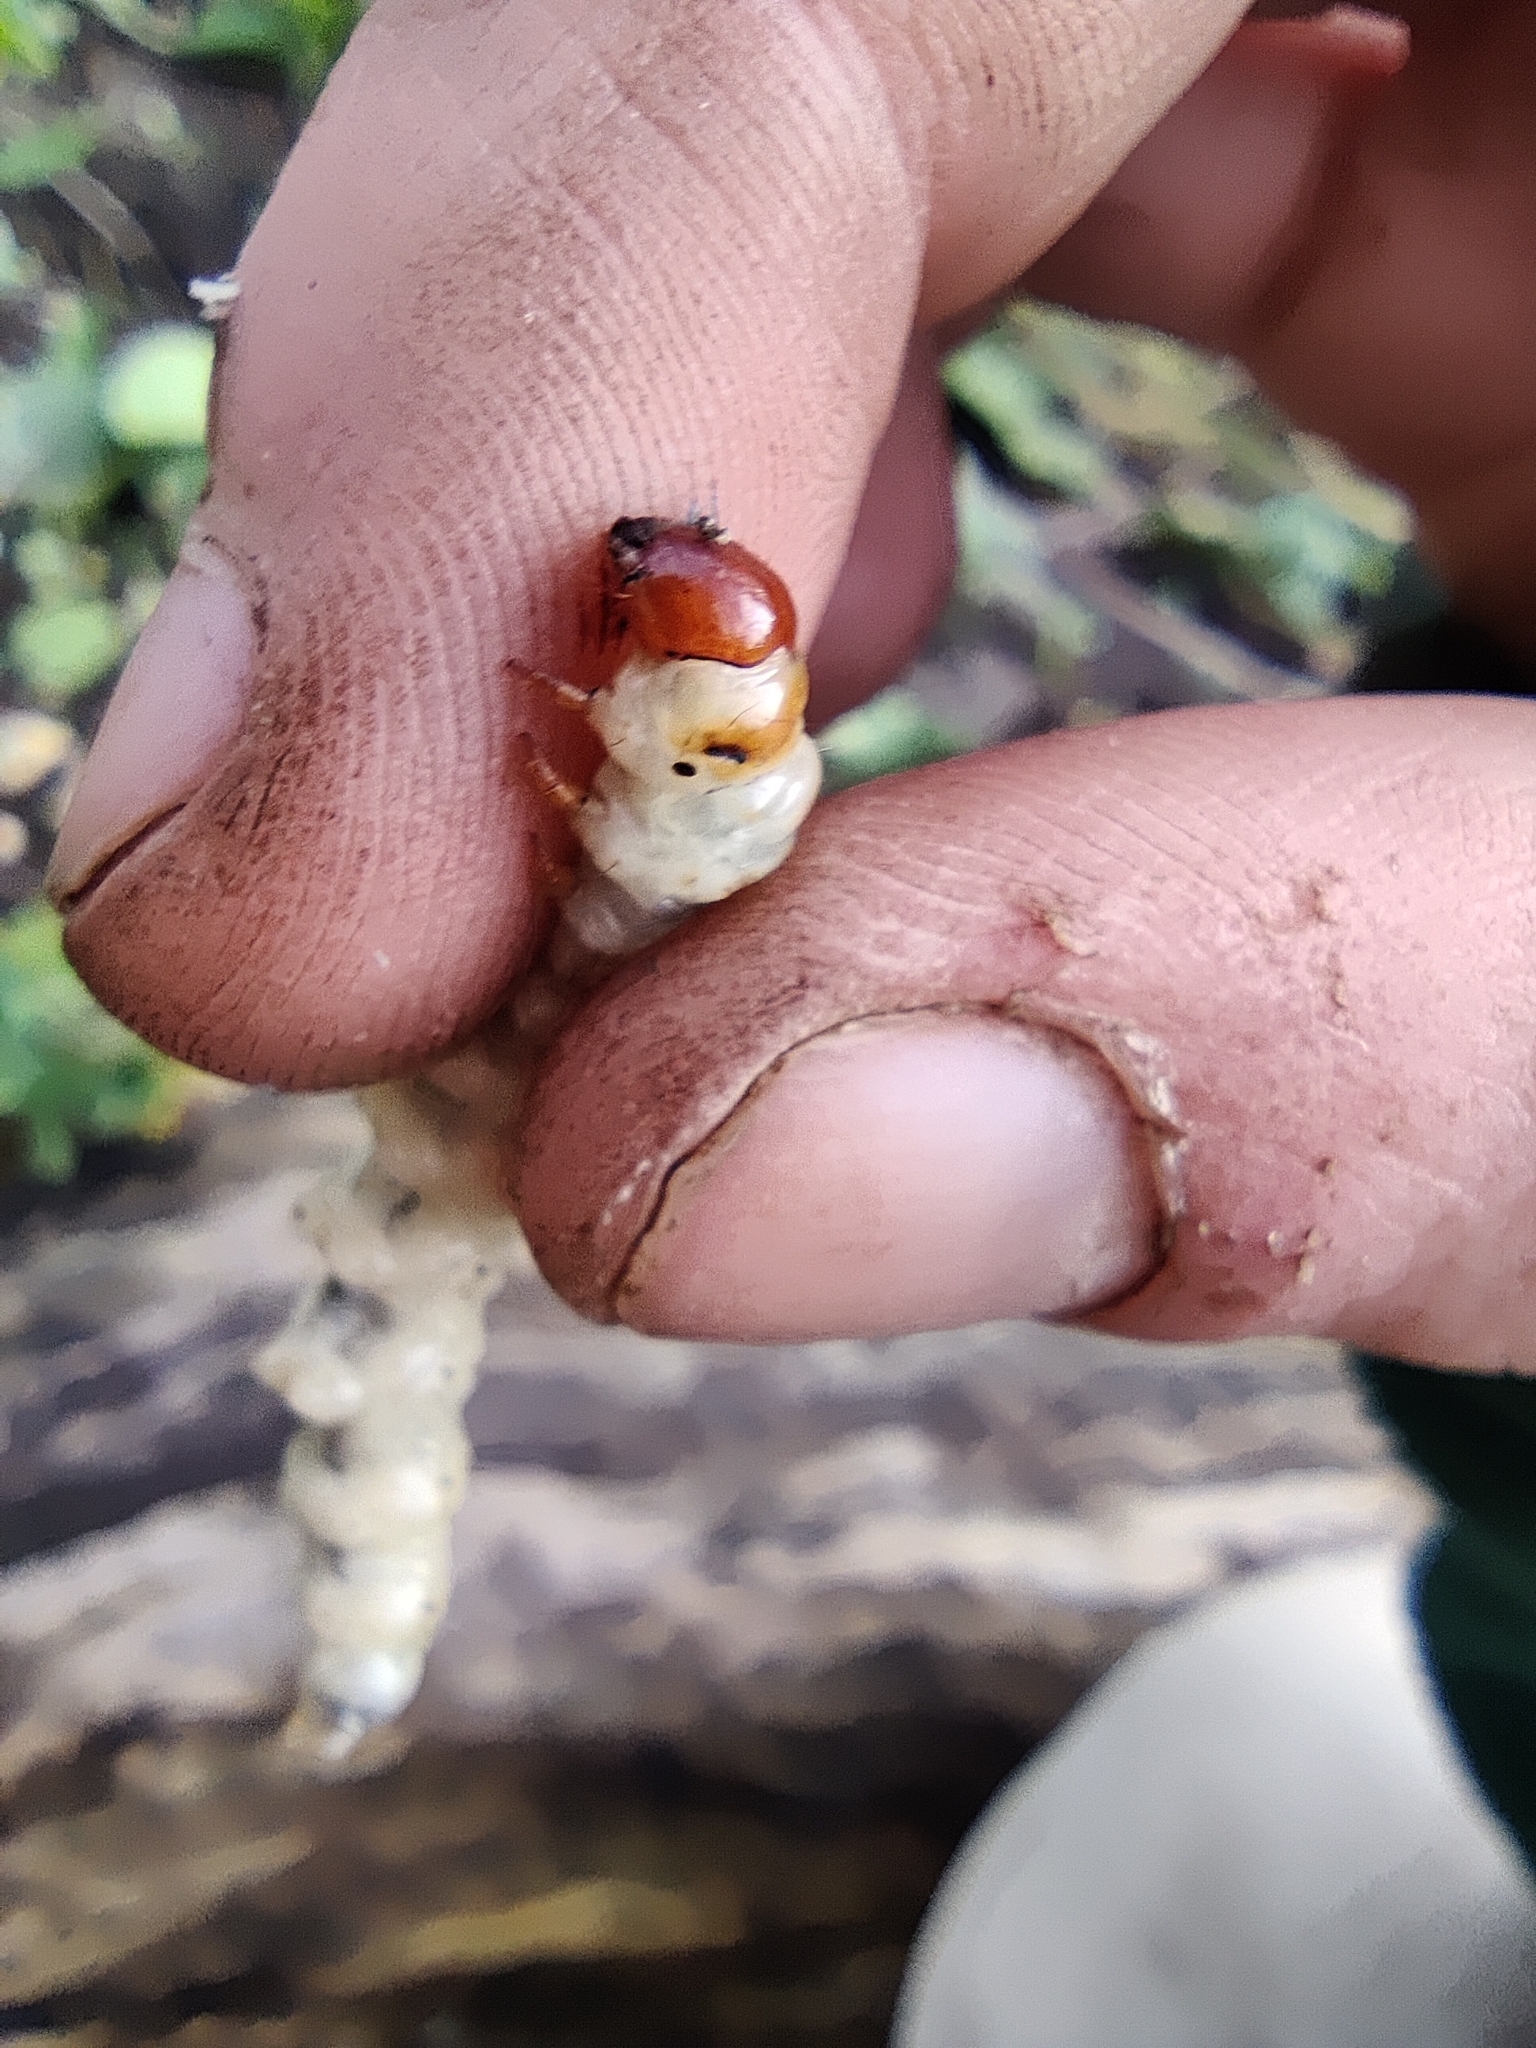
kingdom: Animalia
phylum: Arthropoda
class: Insecta
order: Lepidoptera
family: Hepialidae
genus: Hepialus
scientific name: Hepialus humuli
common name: Ghost moth
